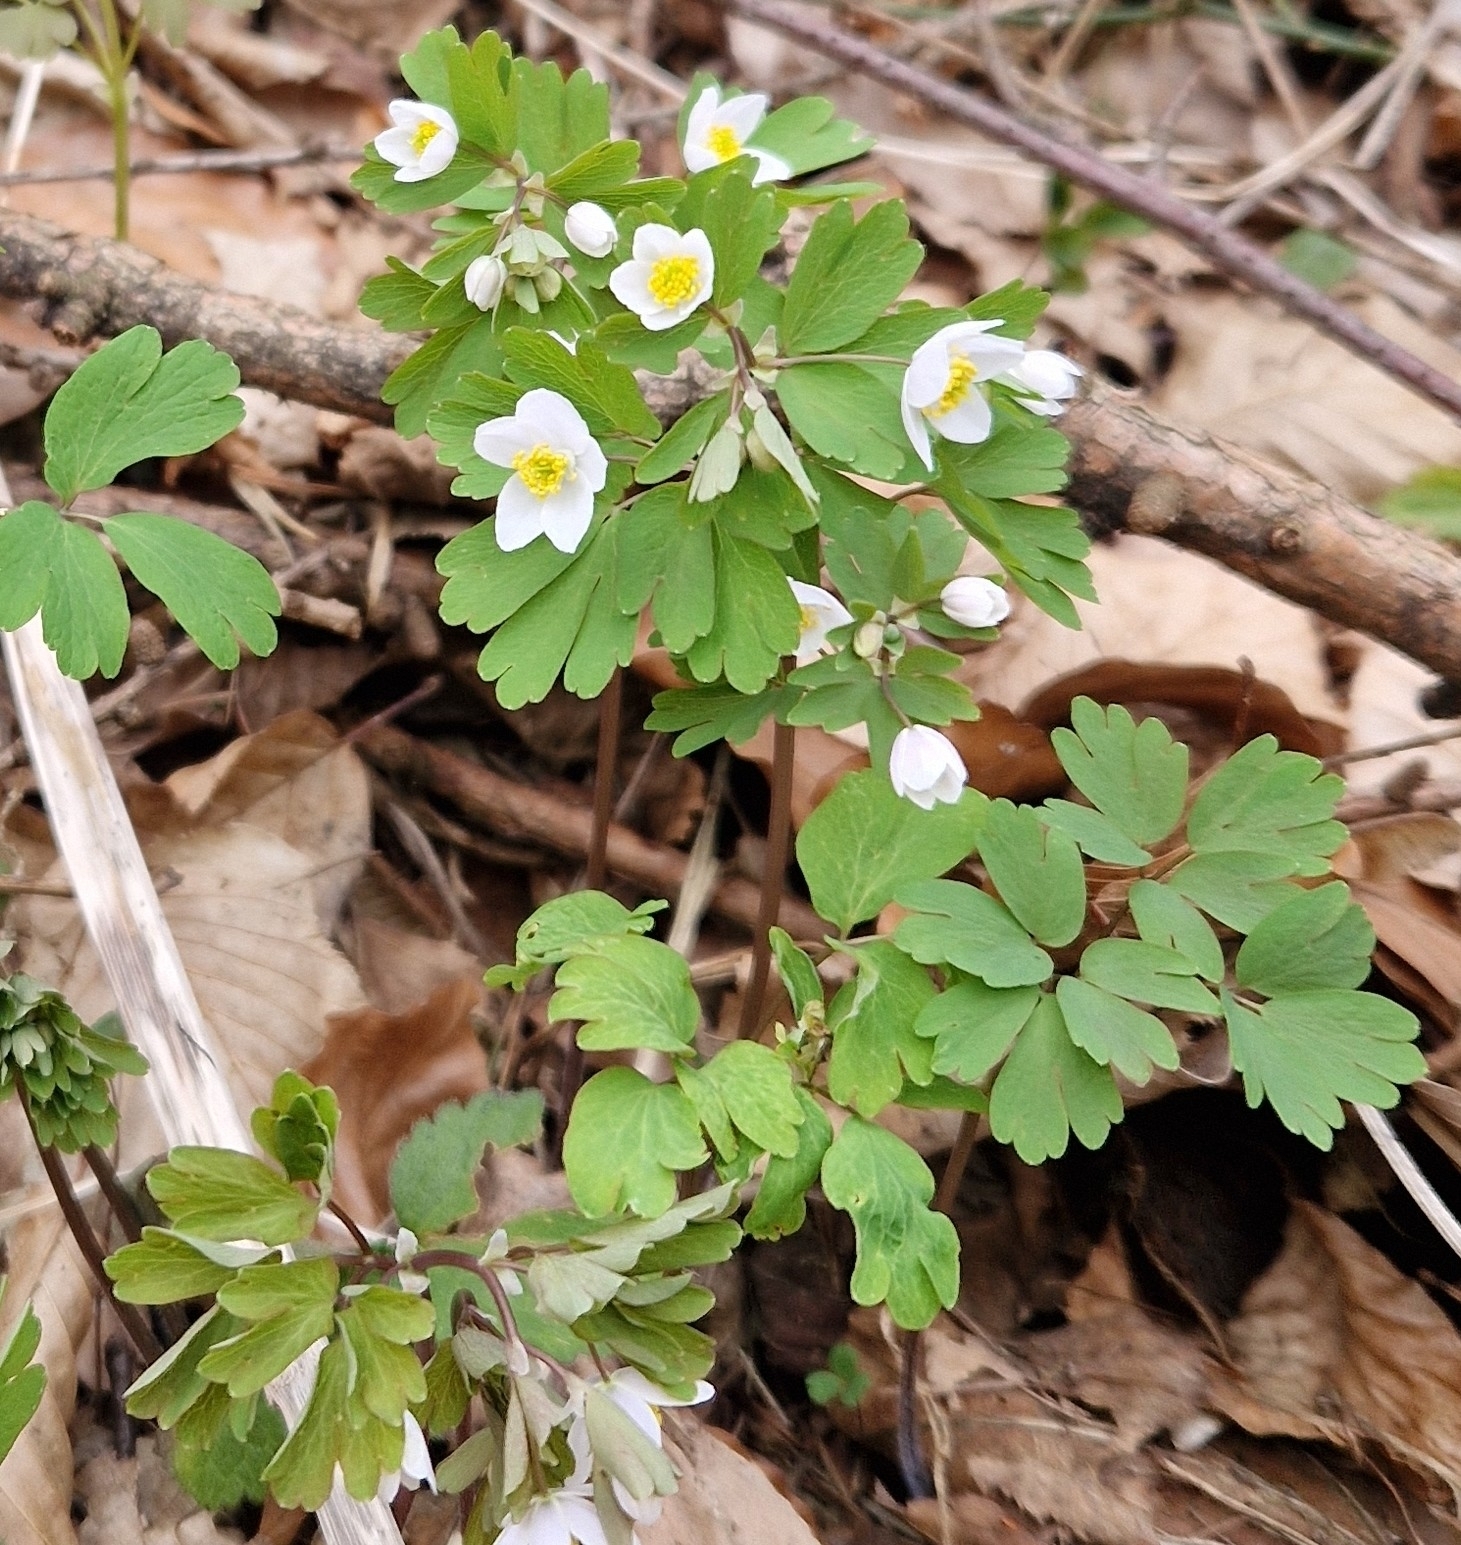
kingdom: Plantae
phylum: Tracheophyta
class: Magnoliopsida
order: Ranunculales
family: Ranunculaceae
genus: Isopyrum
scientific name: Isopyrum thalictroides
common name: Isopyrum
